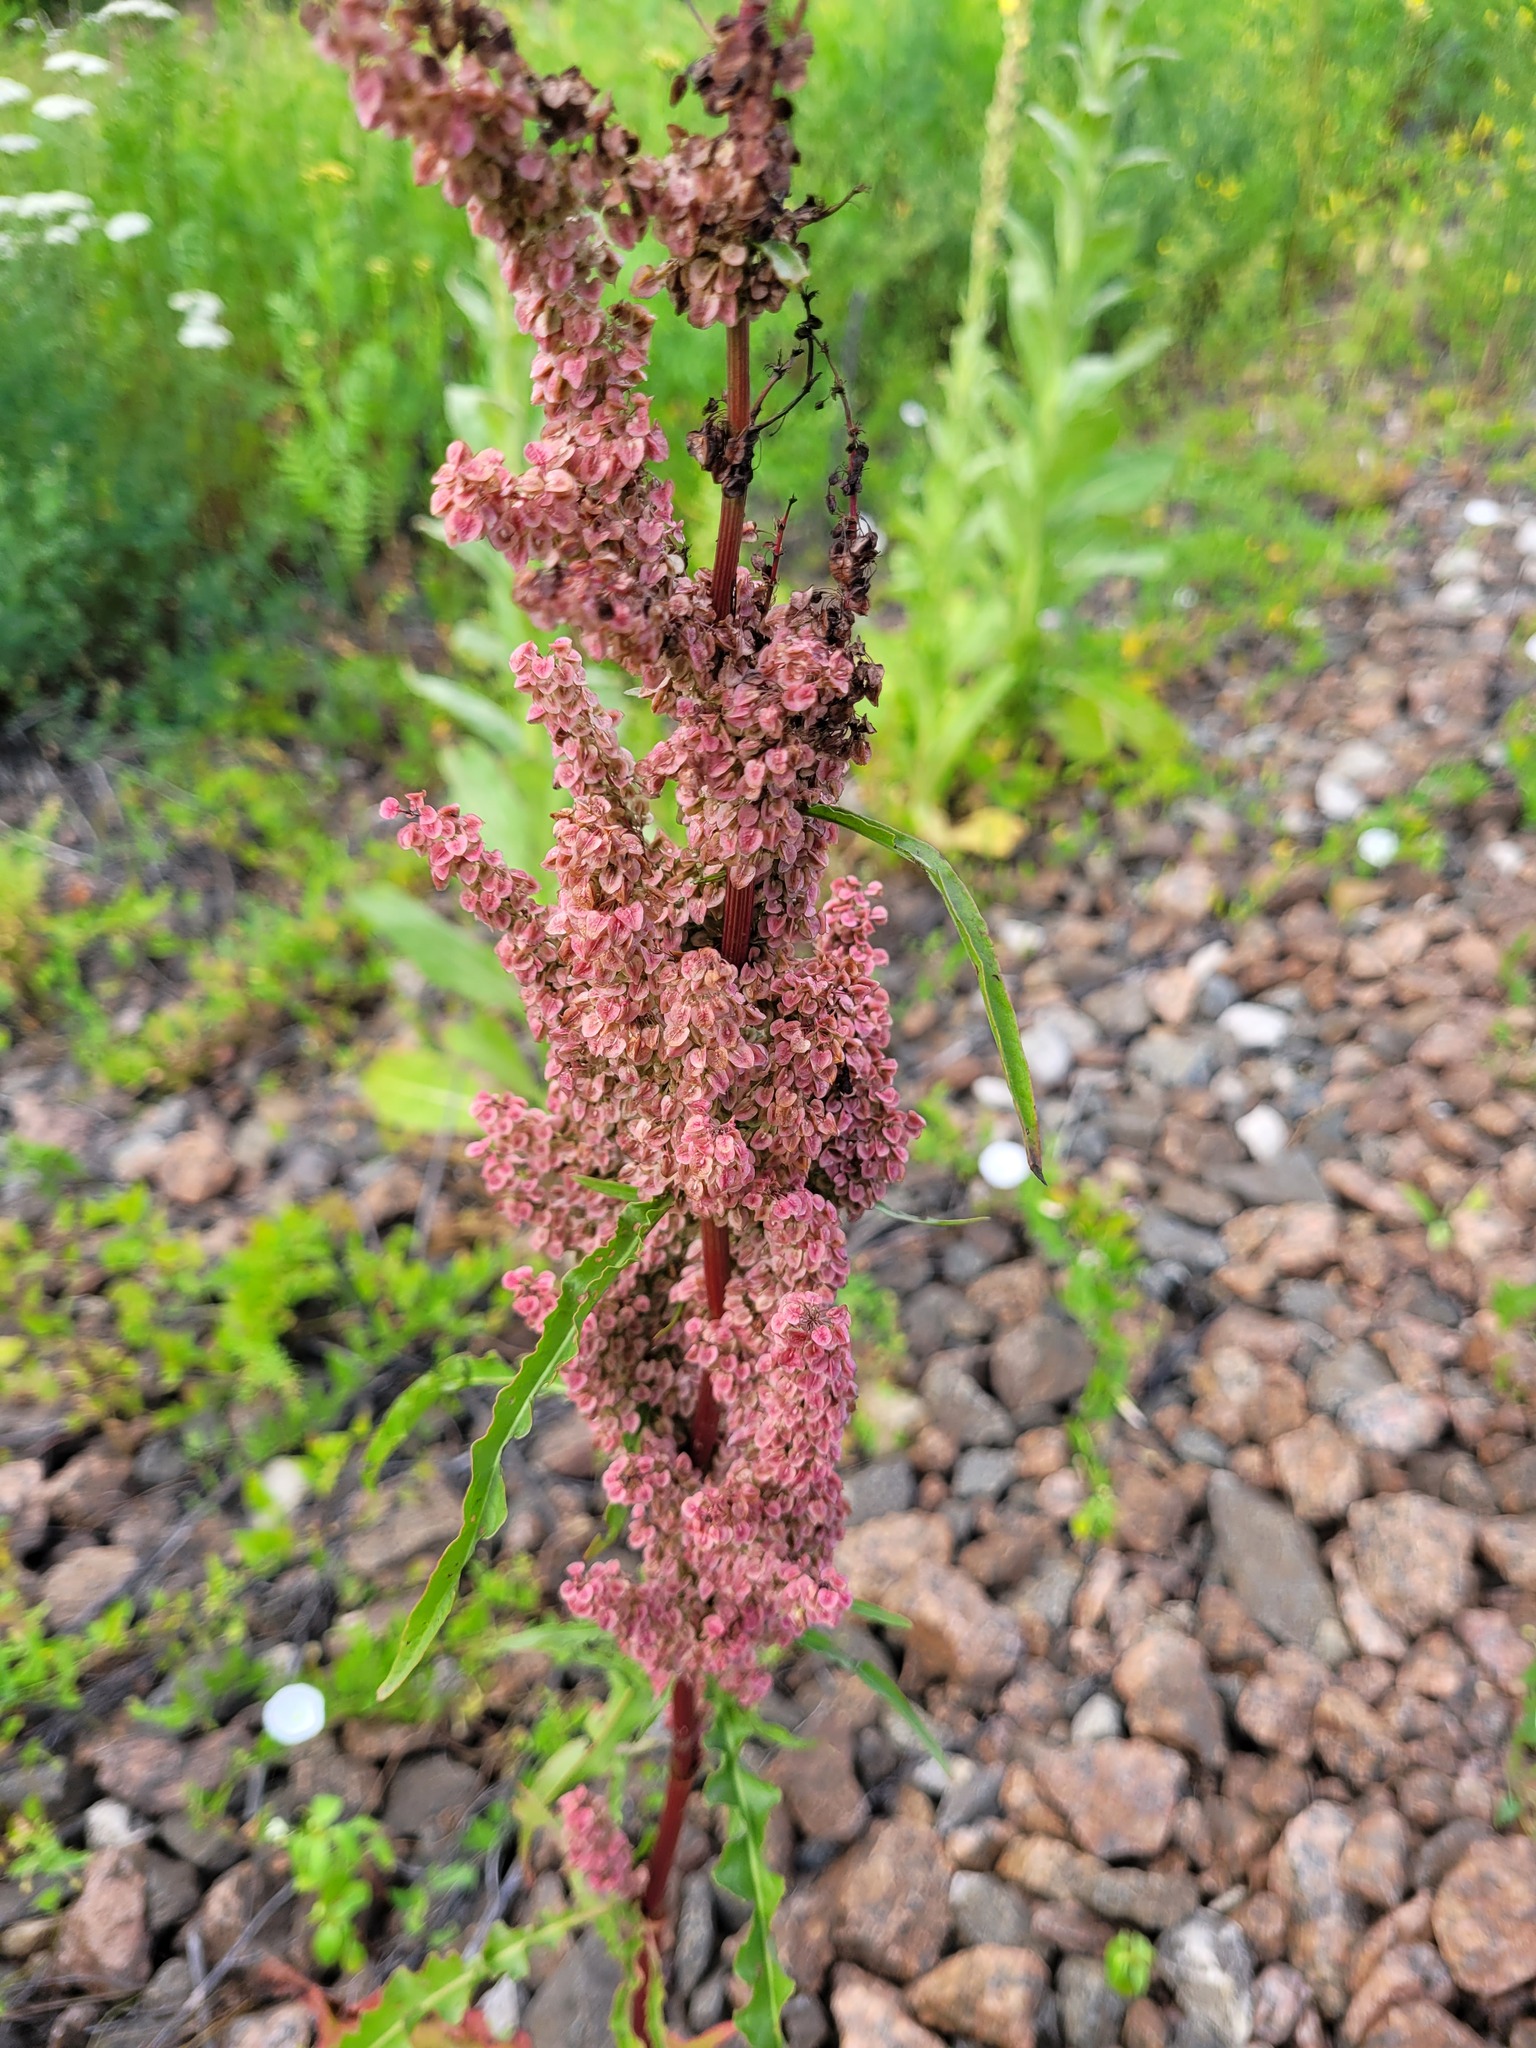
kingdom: Plantae
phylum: Tracheophyta
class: Magnoliopsida
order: Caryophyllales
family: Polygonaceae
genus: Rumex
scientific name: Rumex pseudonatronatus
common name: Field dock
